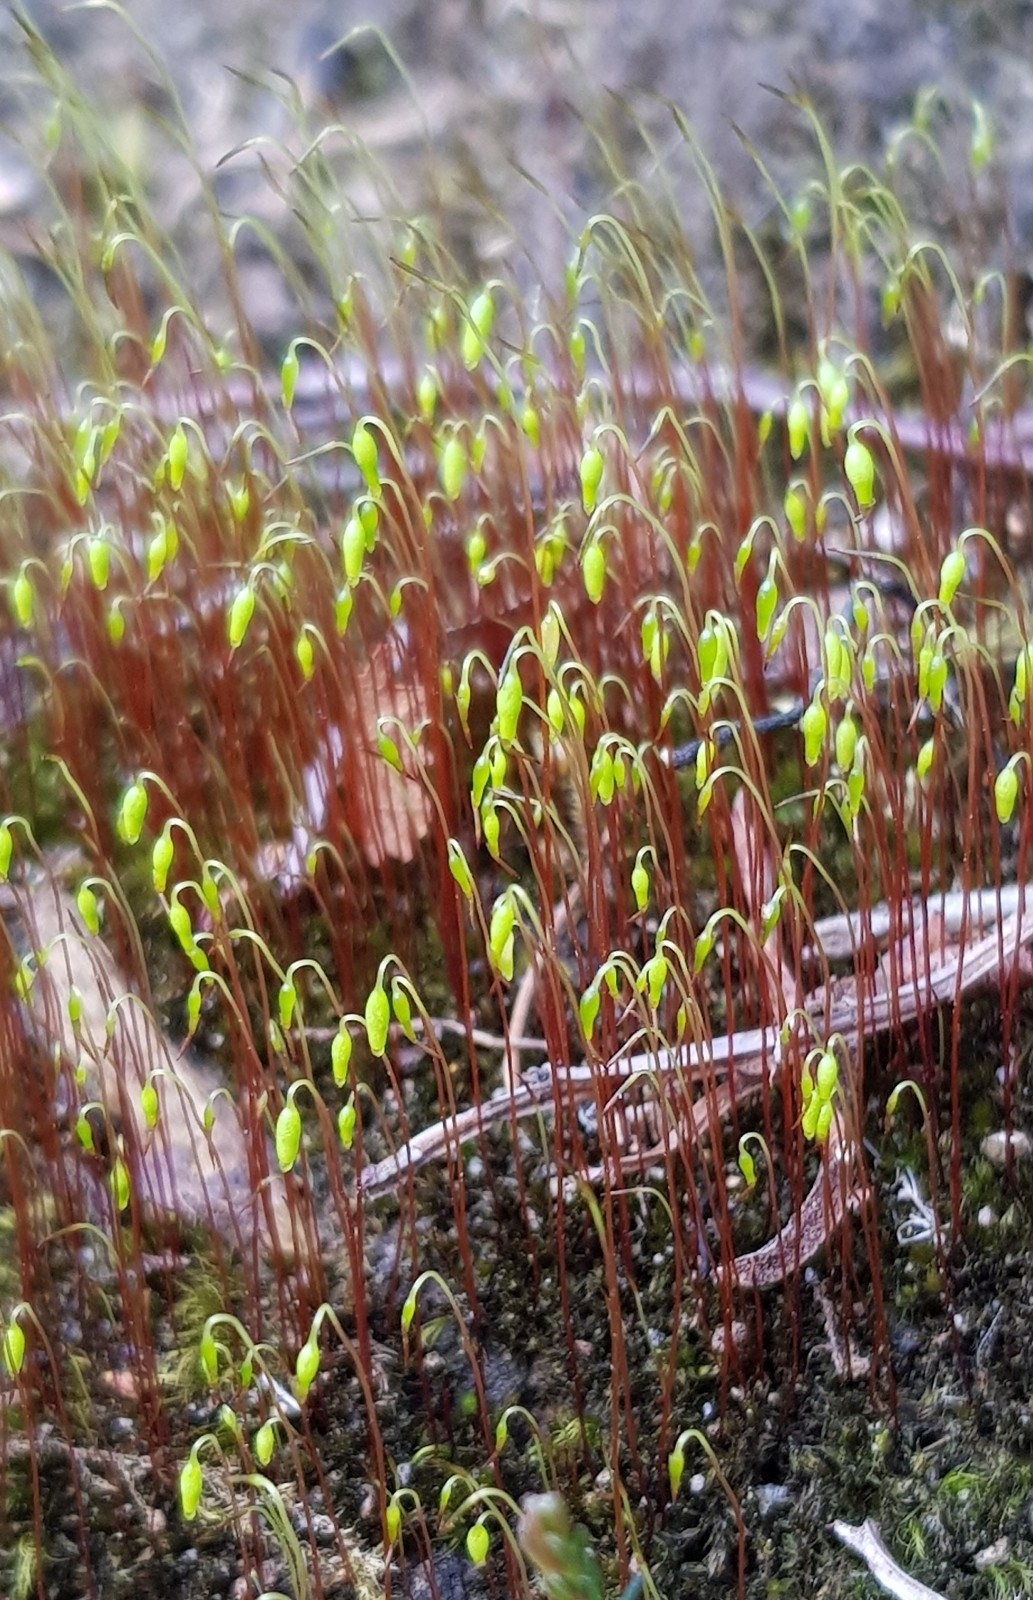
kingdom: Plantae
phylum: Bryophyta
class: Bryopsida
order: Bryales
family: Bryaceae
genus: Gemmabryum
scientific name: Gemmabryum caespiticium
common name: Handbell moss
